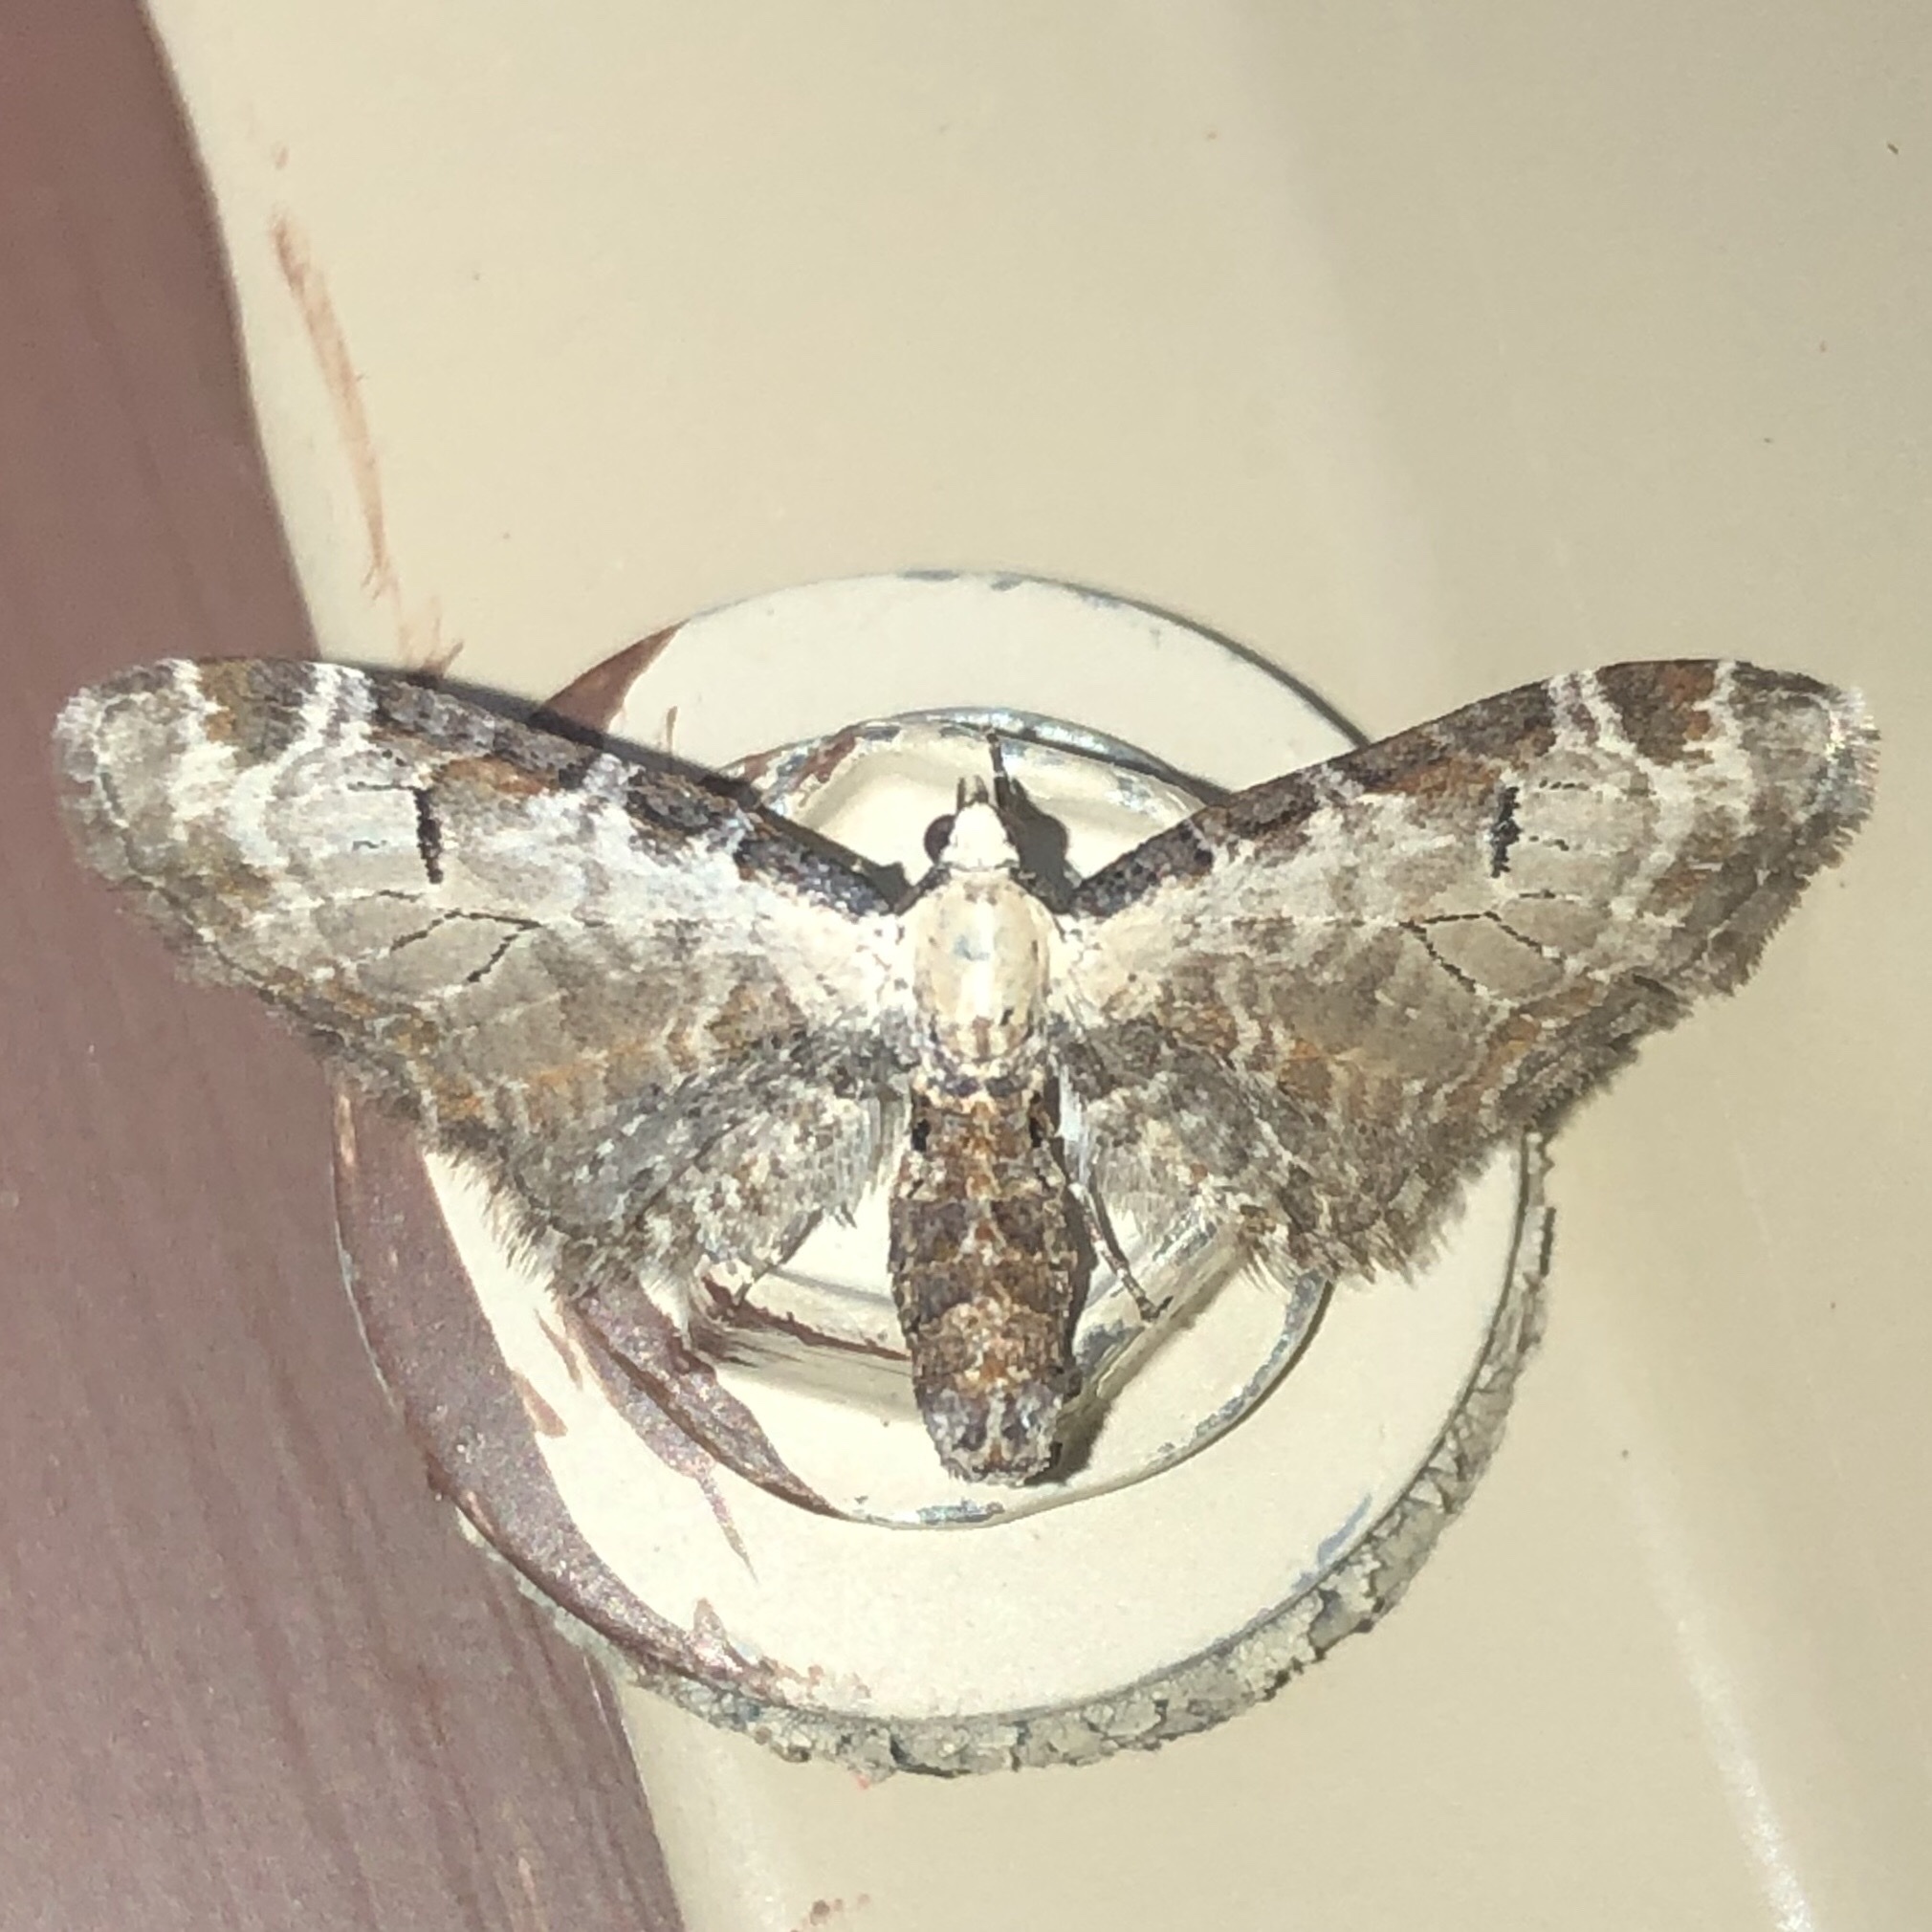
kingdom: Animalia
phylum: Arthropoda
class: Insecta
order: Lepidoptera
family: Geometridae
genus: Eupithecia
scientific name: Eupithecia ravocostaliata
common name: Great varigated pug
